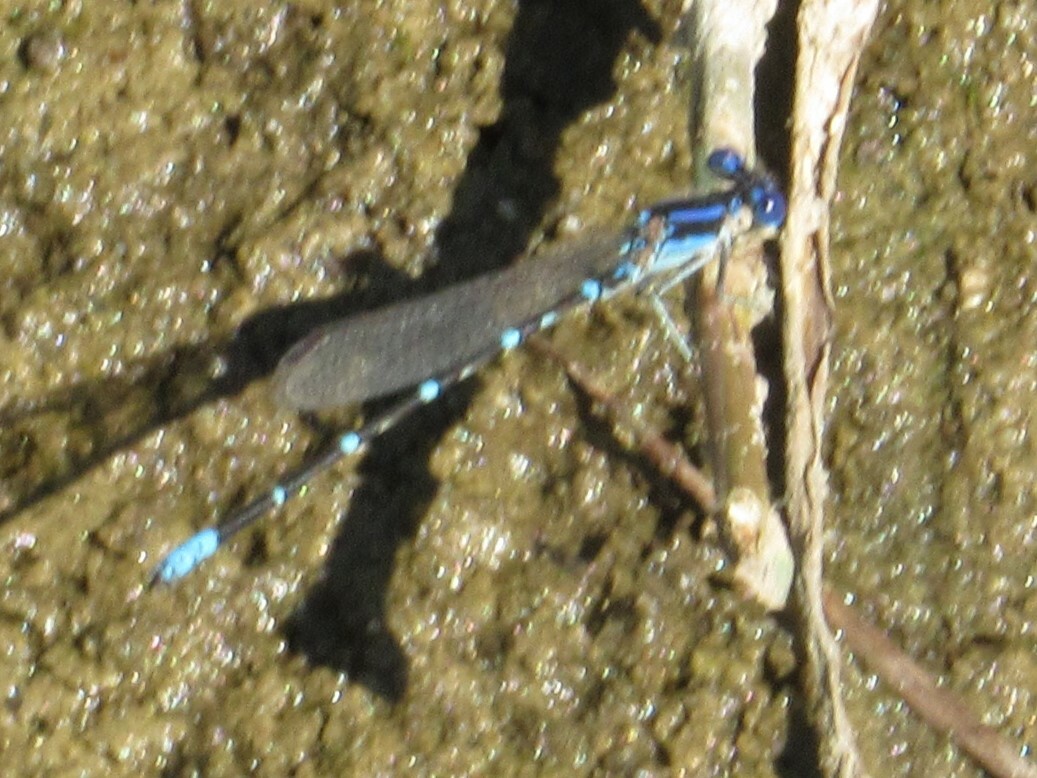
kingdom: Animalia
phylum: Arthropoda
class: Insecta
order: Odonata
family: Coenagrionidae
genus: Argia
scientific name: Argia sedula
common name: Blue-ringed dancer
